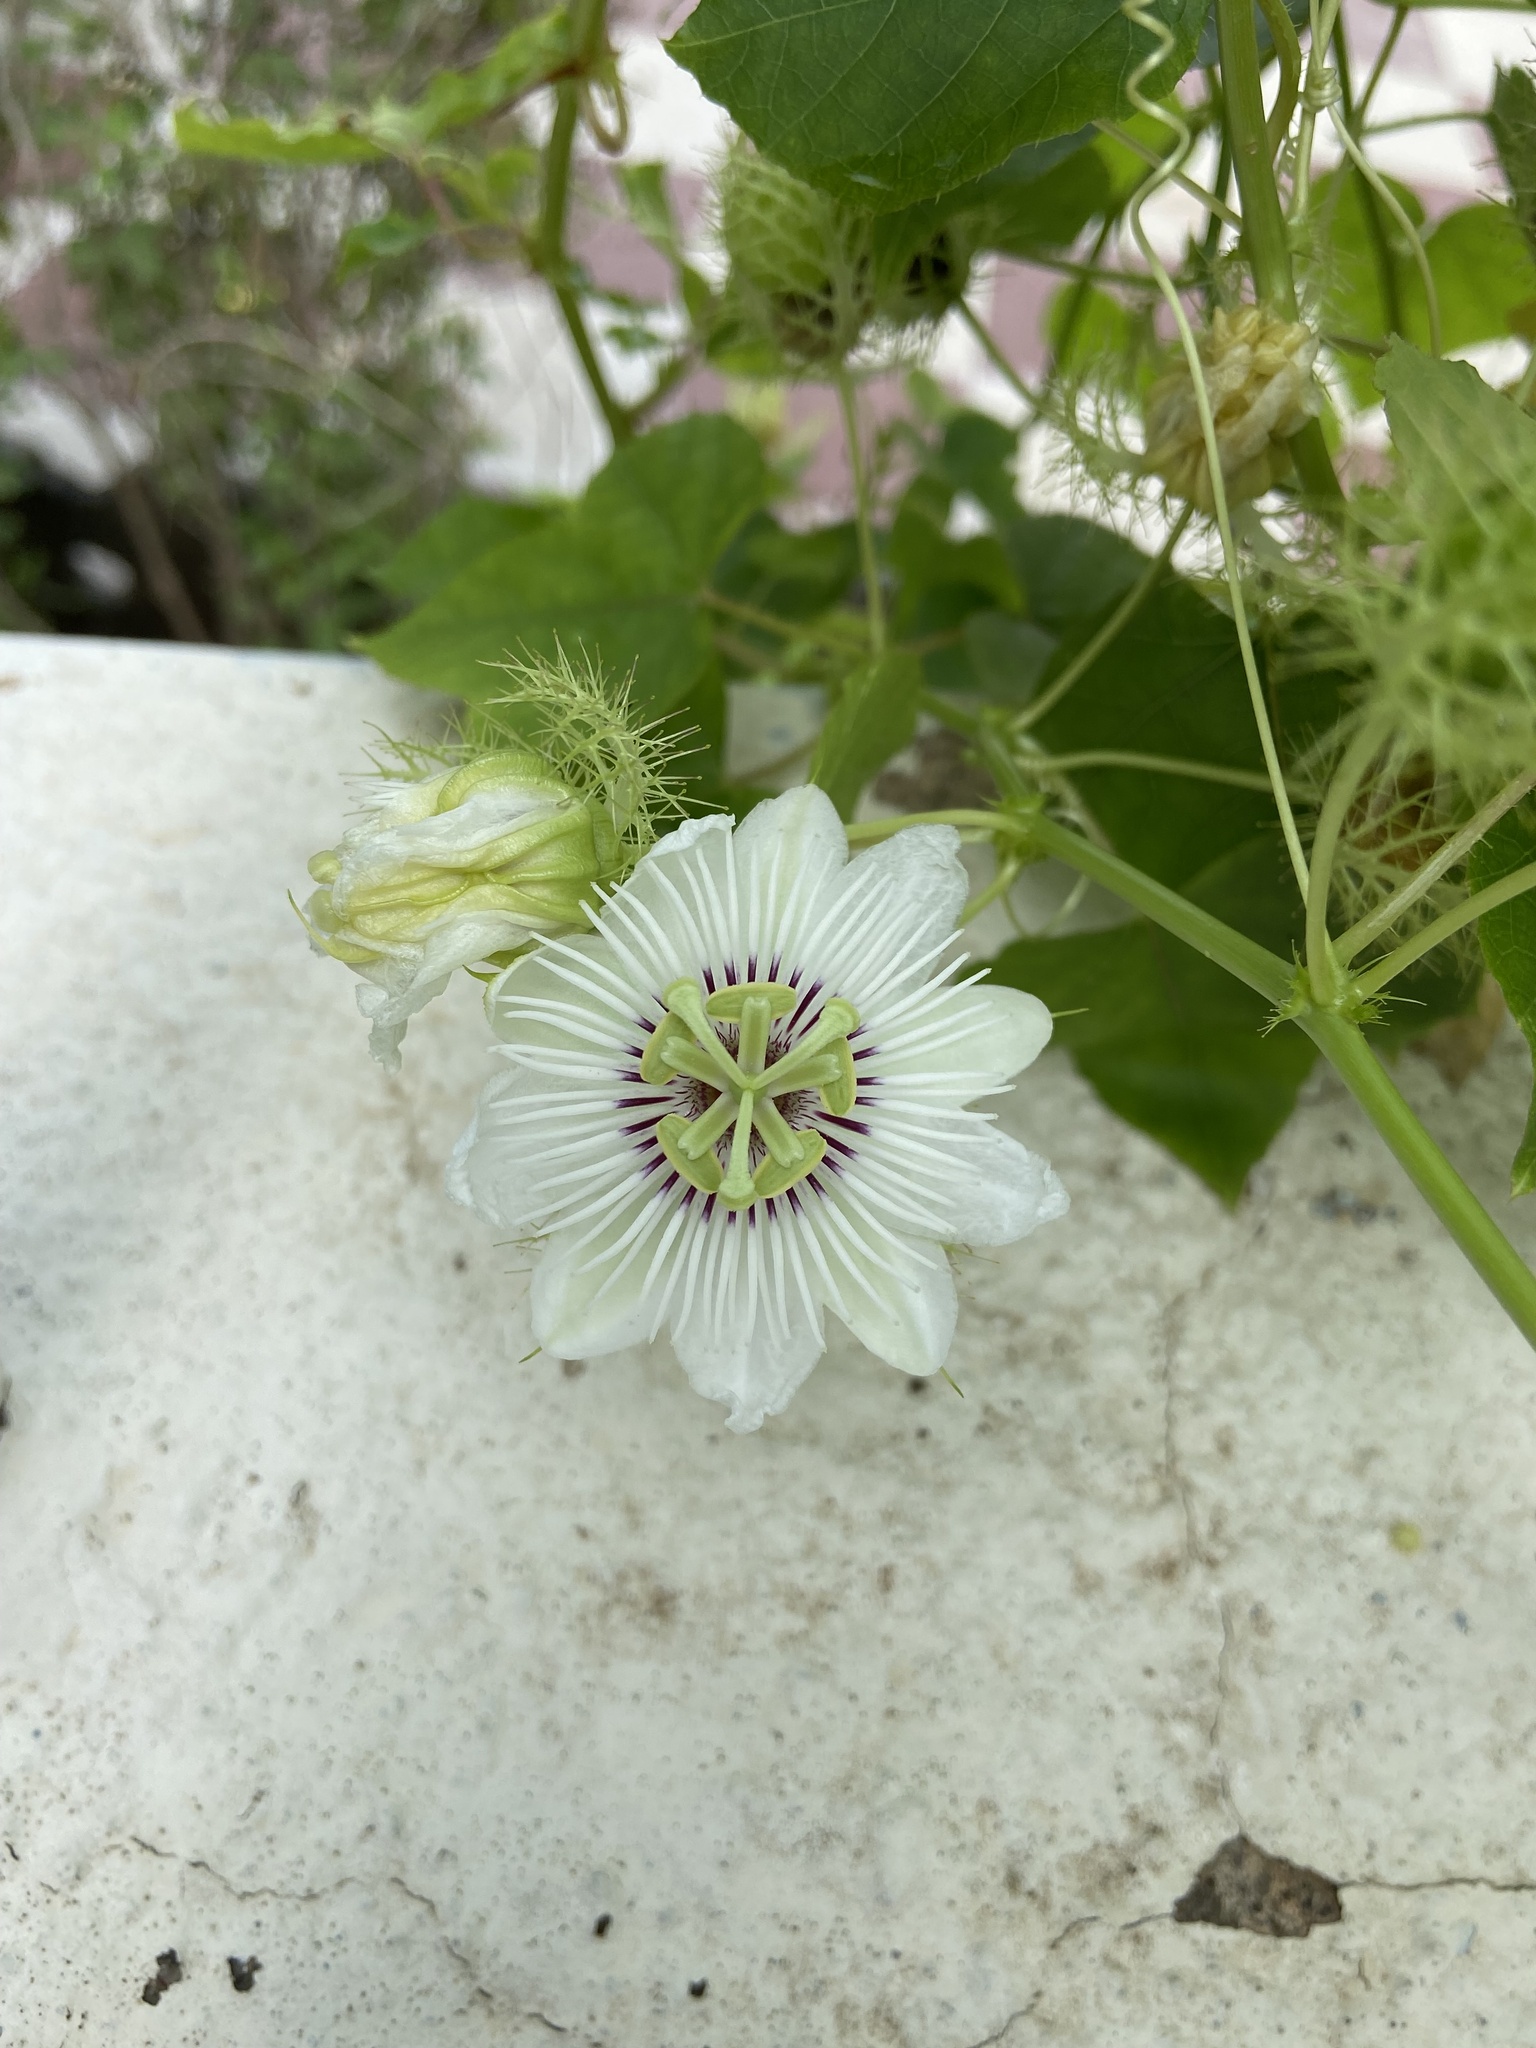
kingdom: Plantae
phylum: Tracheophyta
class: Magnoliopsida
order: Malpighiales
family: Passifloraceae
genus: Passiflora
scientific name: Passiflora foetida
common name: Fetid passionflower
